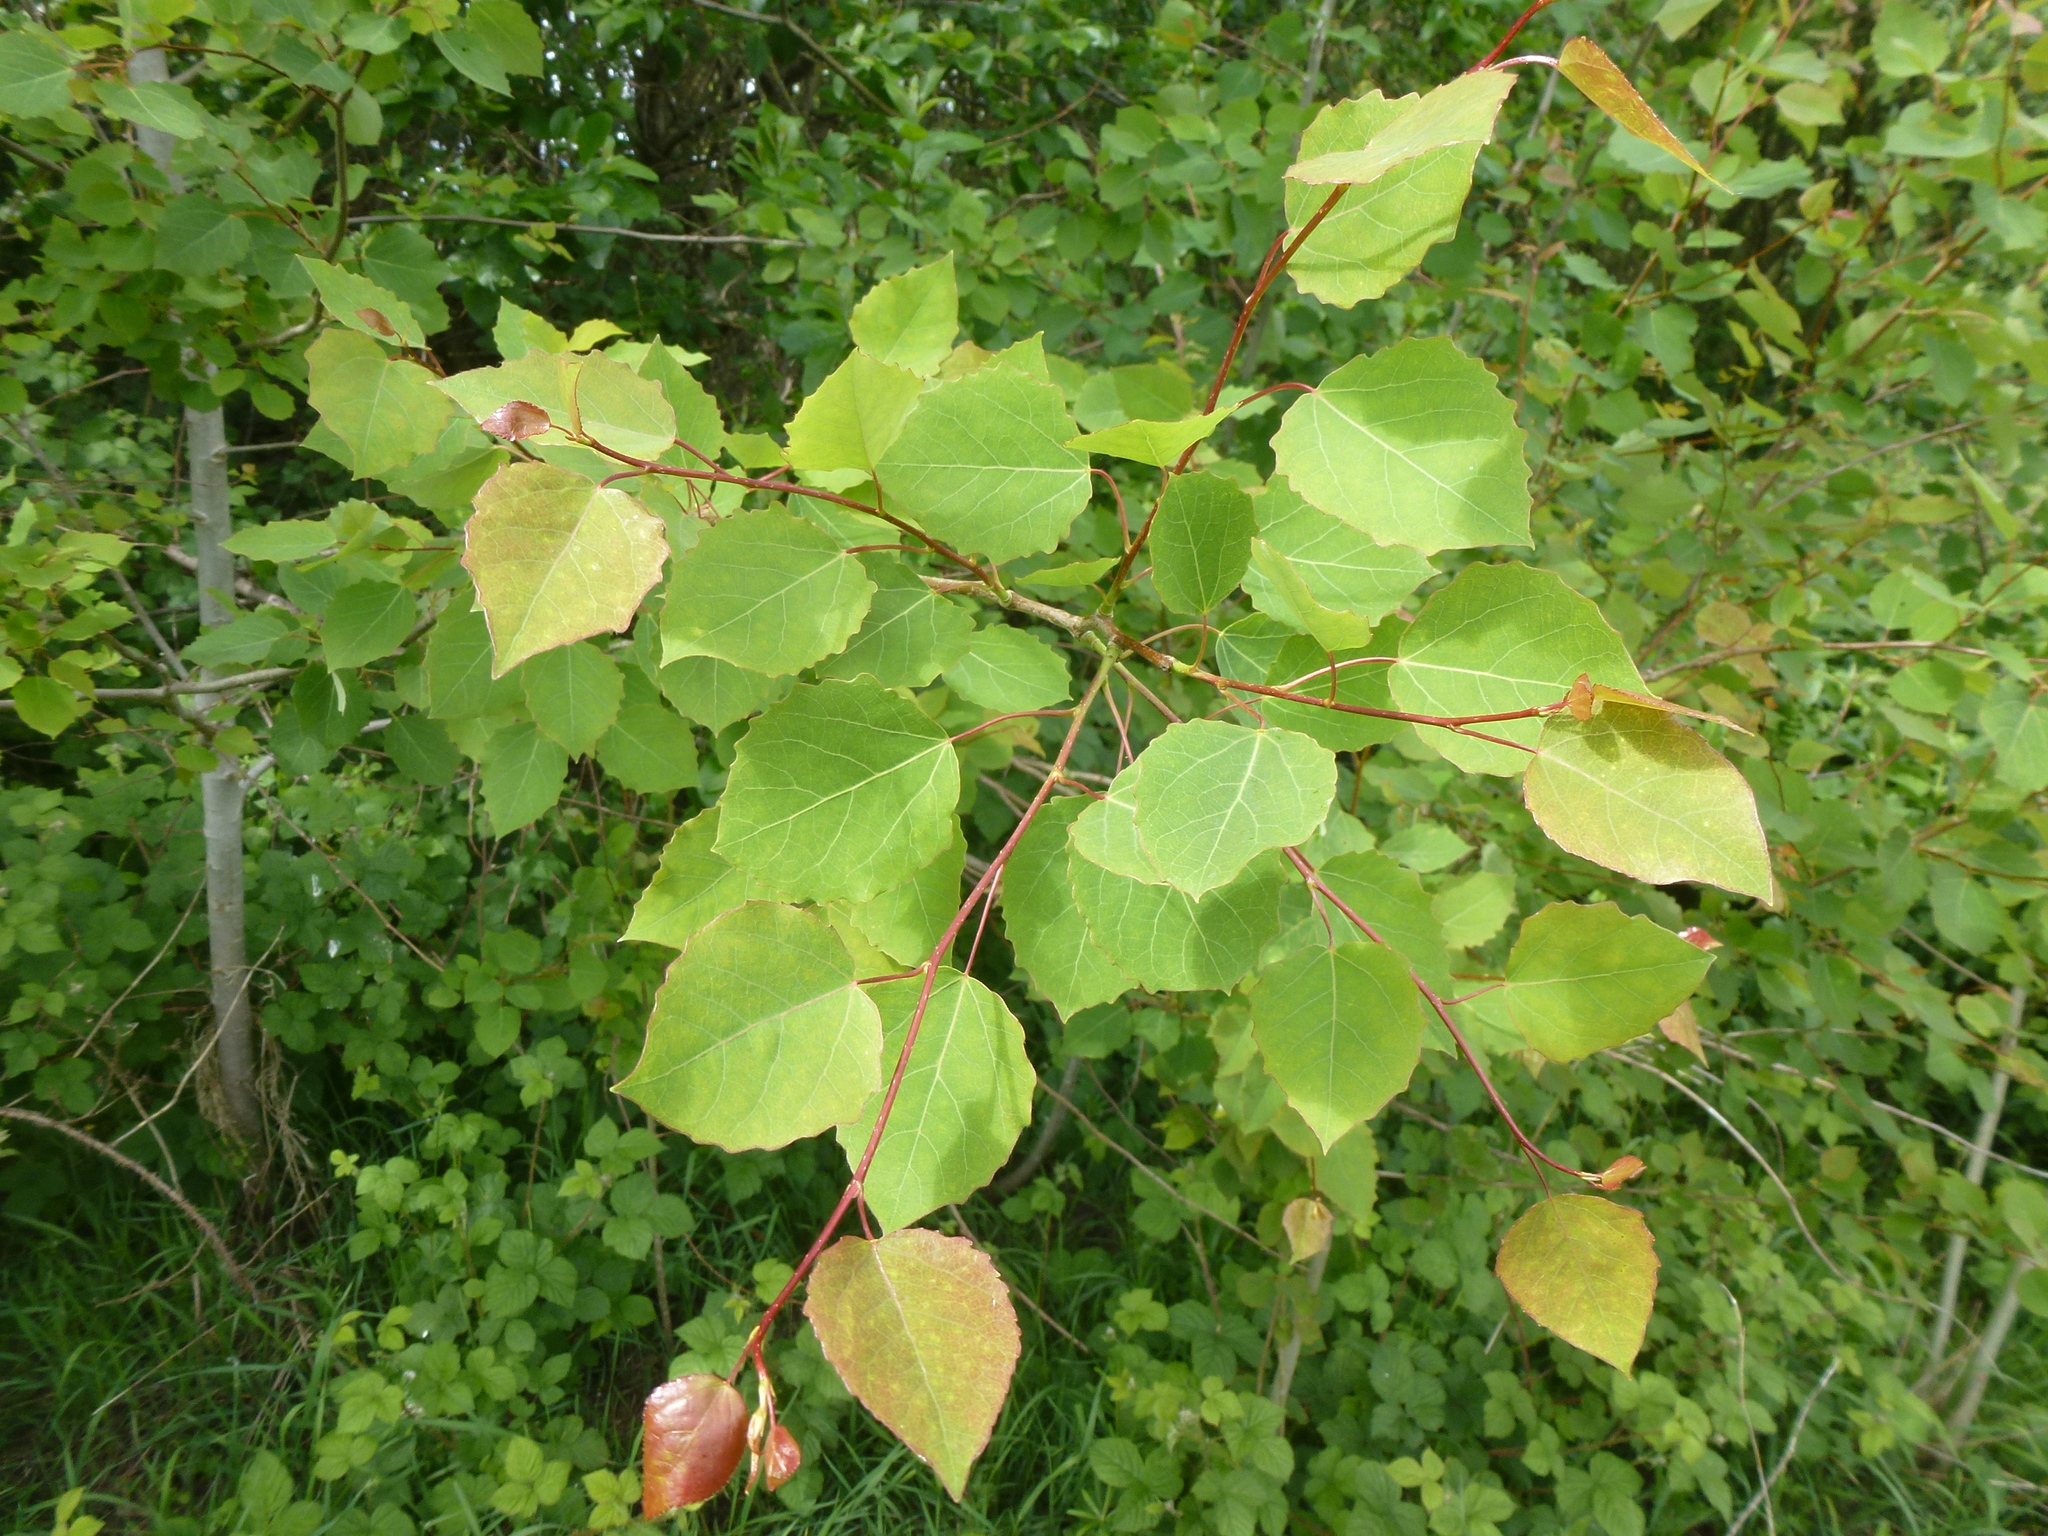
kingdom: Plantae
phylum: Tracheophyta
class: Magnoliopsida
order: Malpighiales
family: Salicaceae
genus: Populus
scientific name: Populus tremula
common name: European aspen
